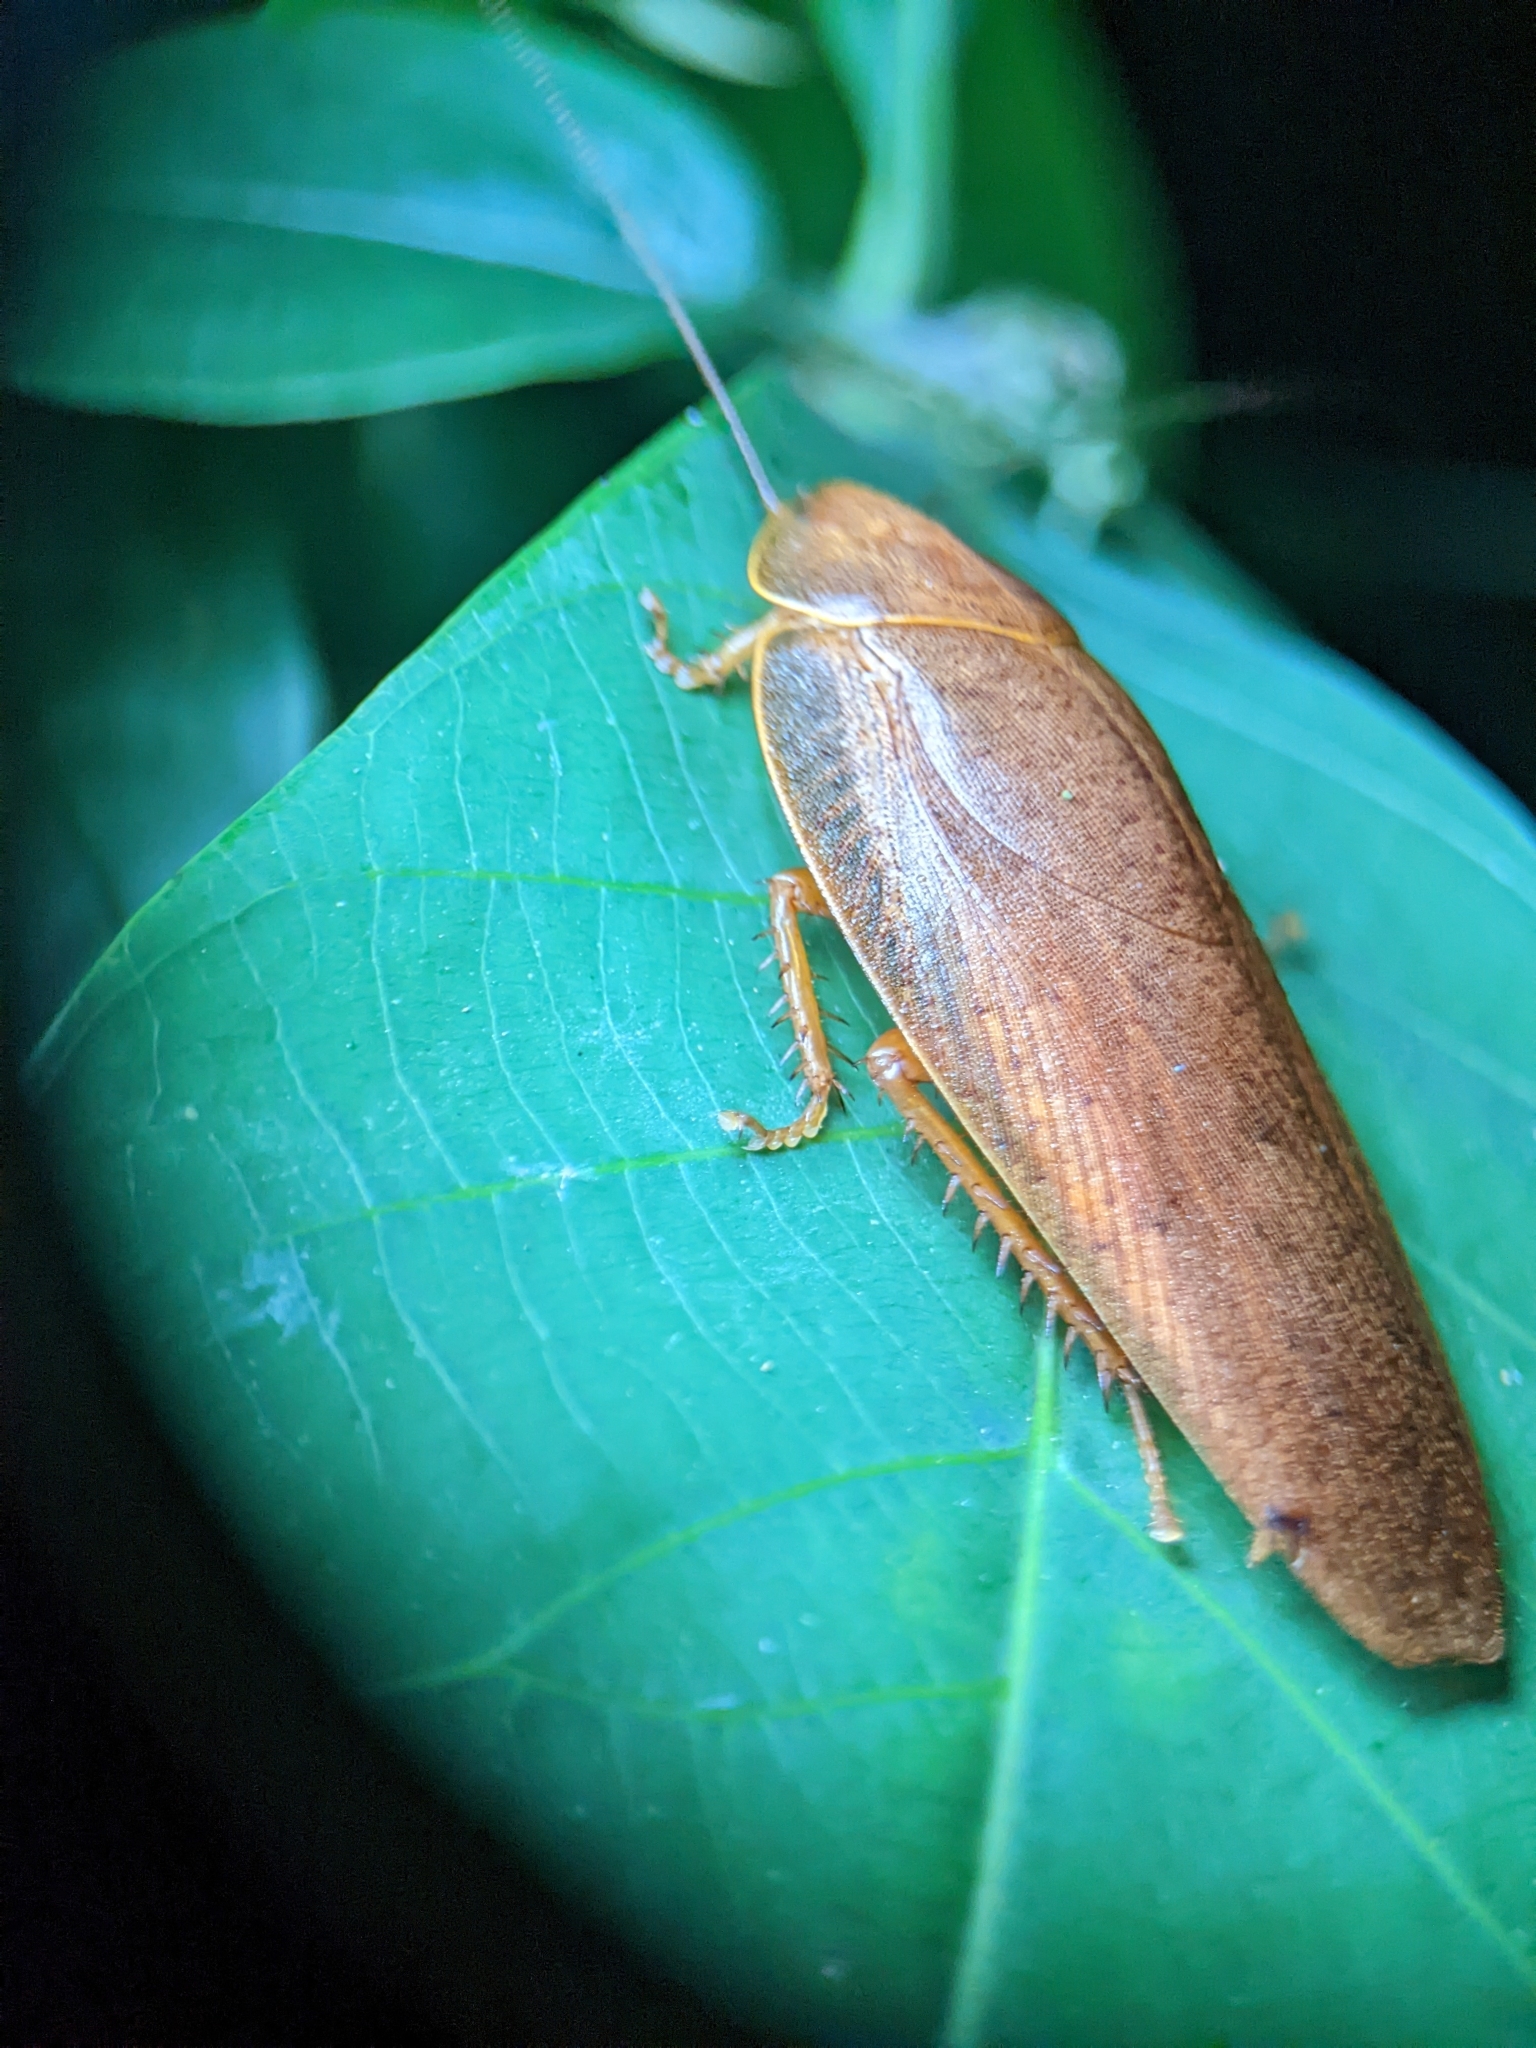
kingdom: Animalia
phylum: Arthropoda
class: Insecta
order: Blattodea
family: Blaberidae
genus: Pseudophoraspis
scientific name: Pseudophoraspis nebulosa
